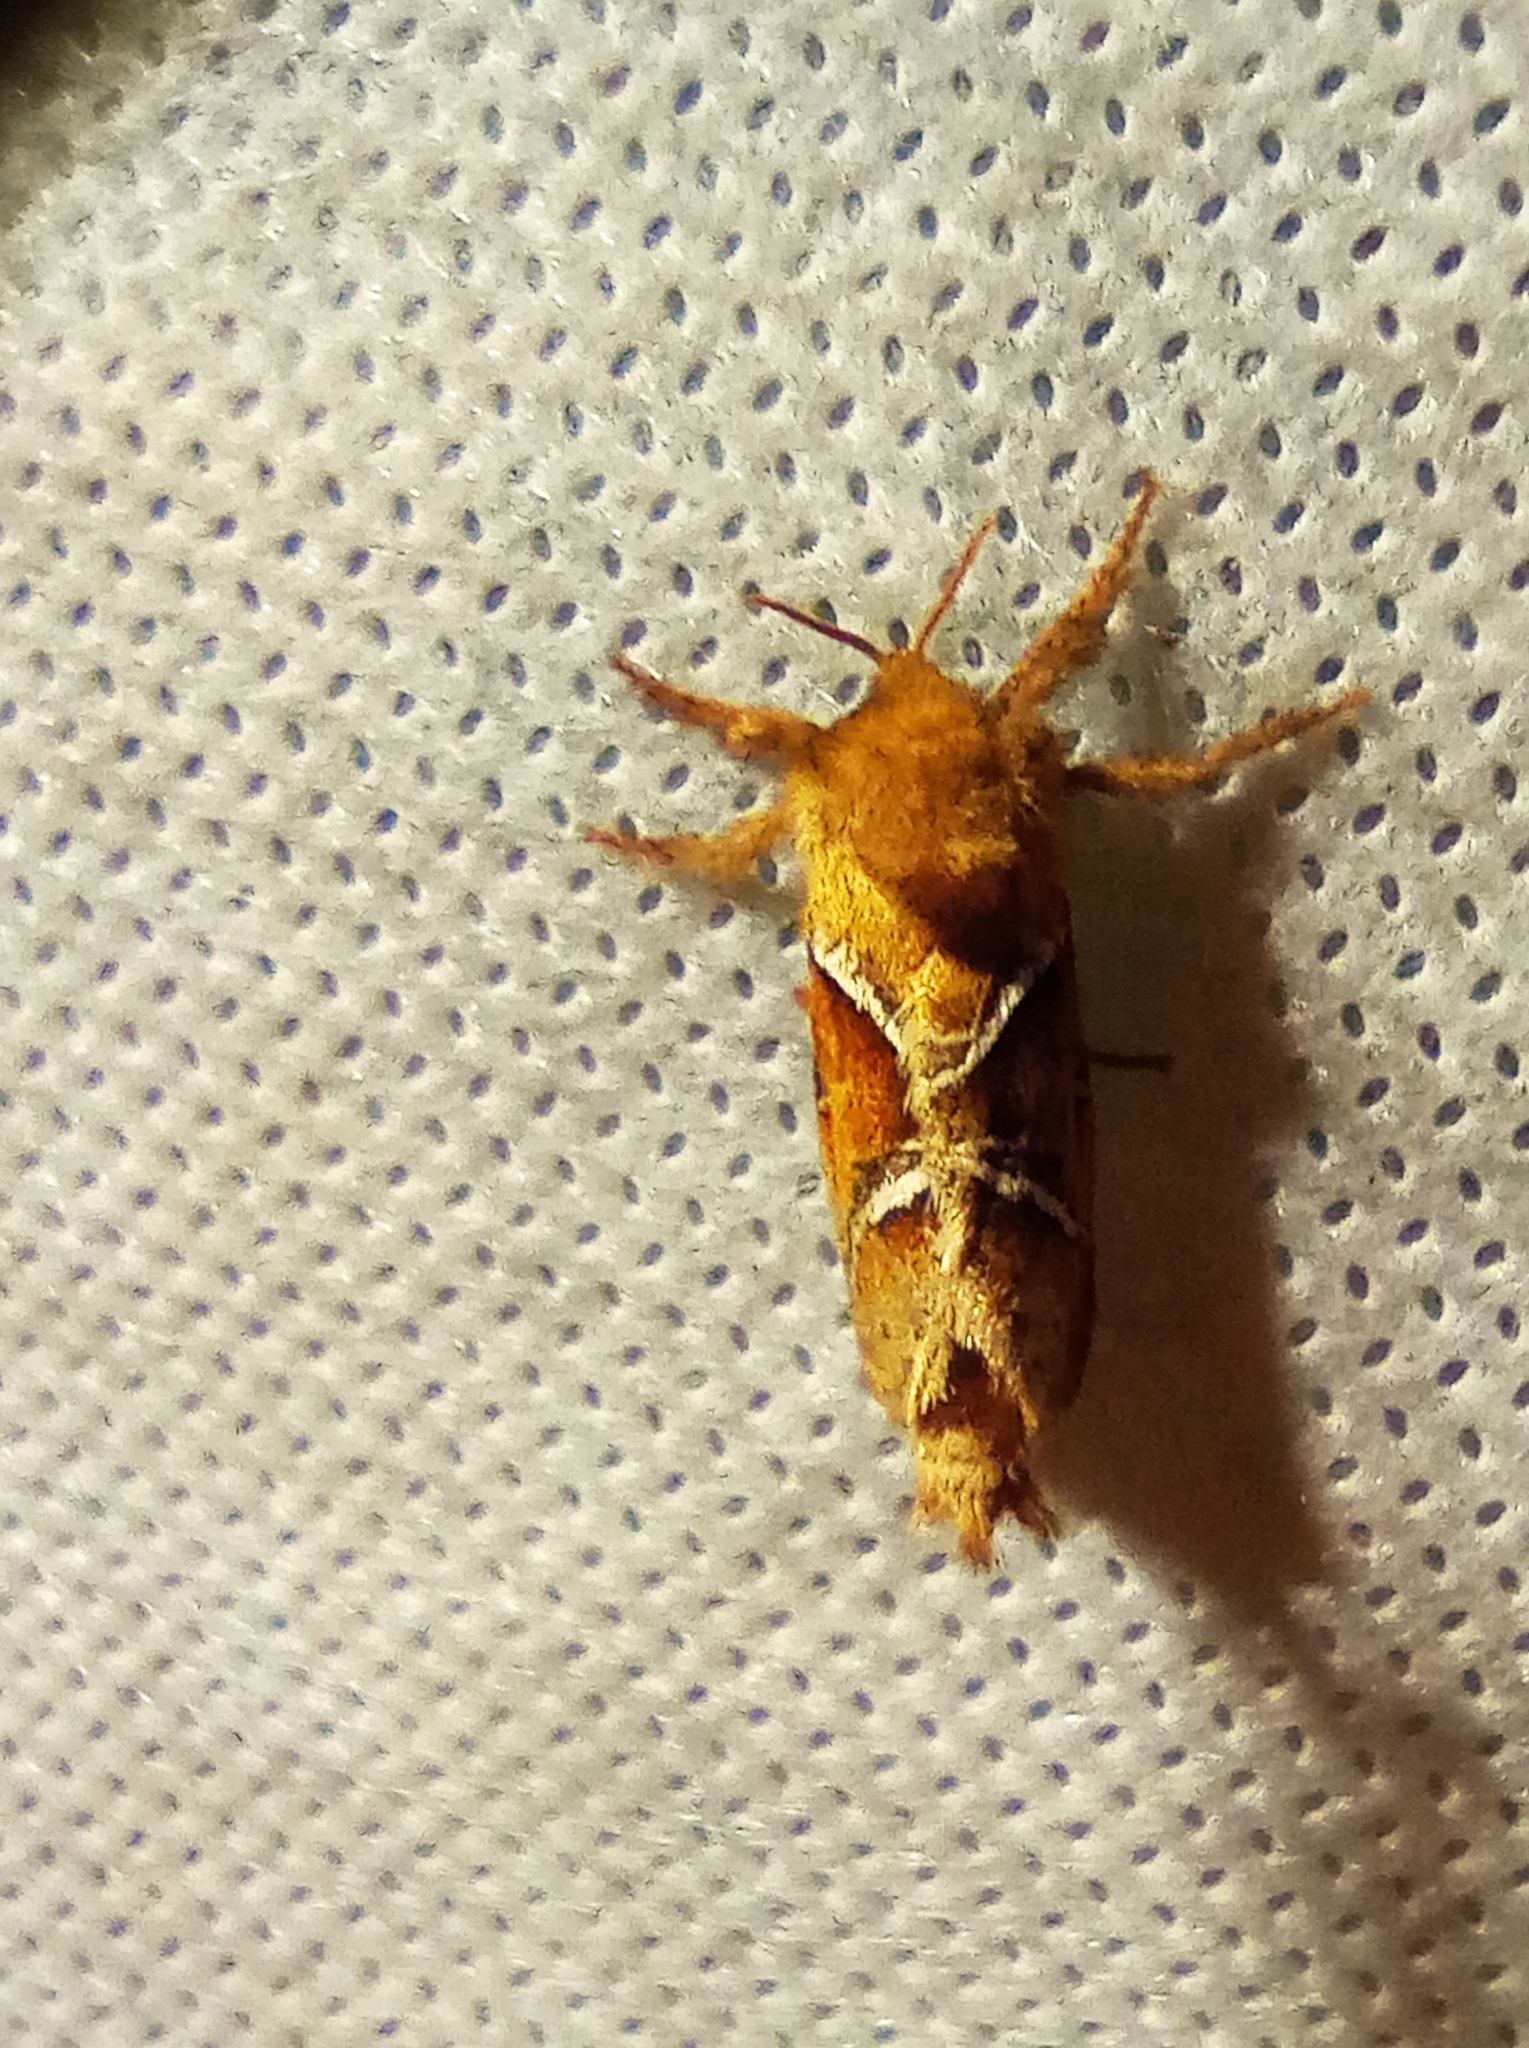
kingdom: Animalia
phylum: Arthropoda
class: Insecta
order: Lepidoptera
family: Hepialidae
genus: Triodia
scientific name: Triodia sylvina
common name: Orange swift
